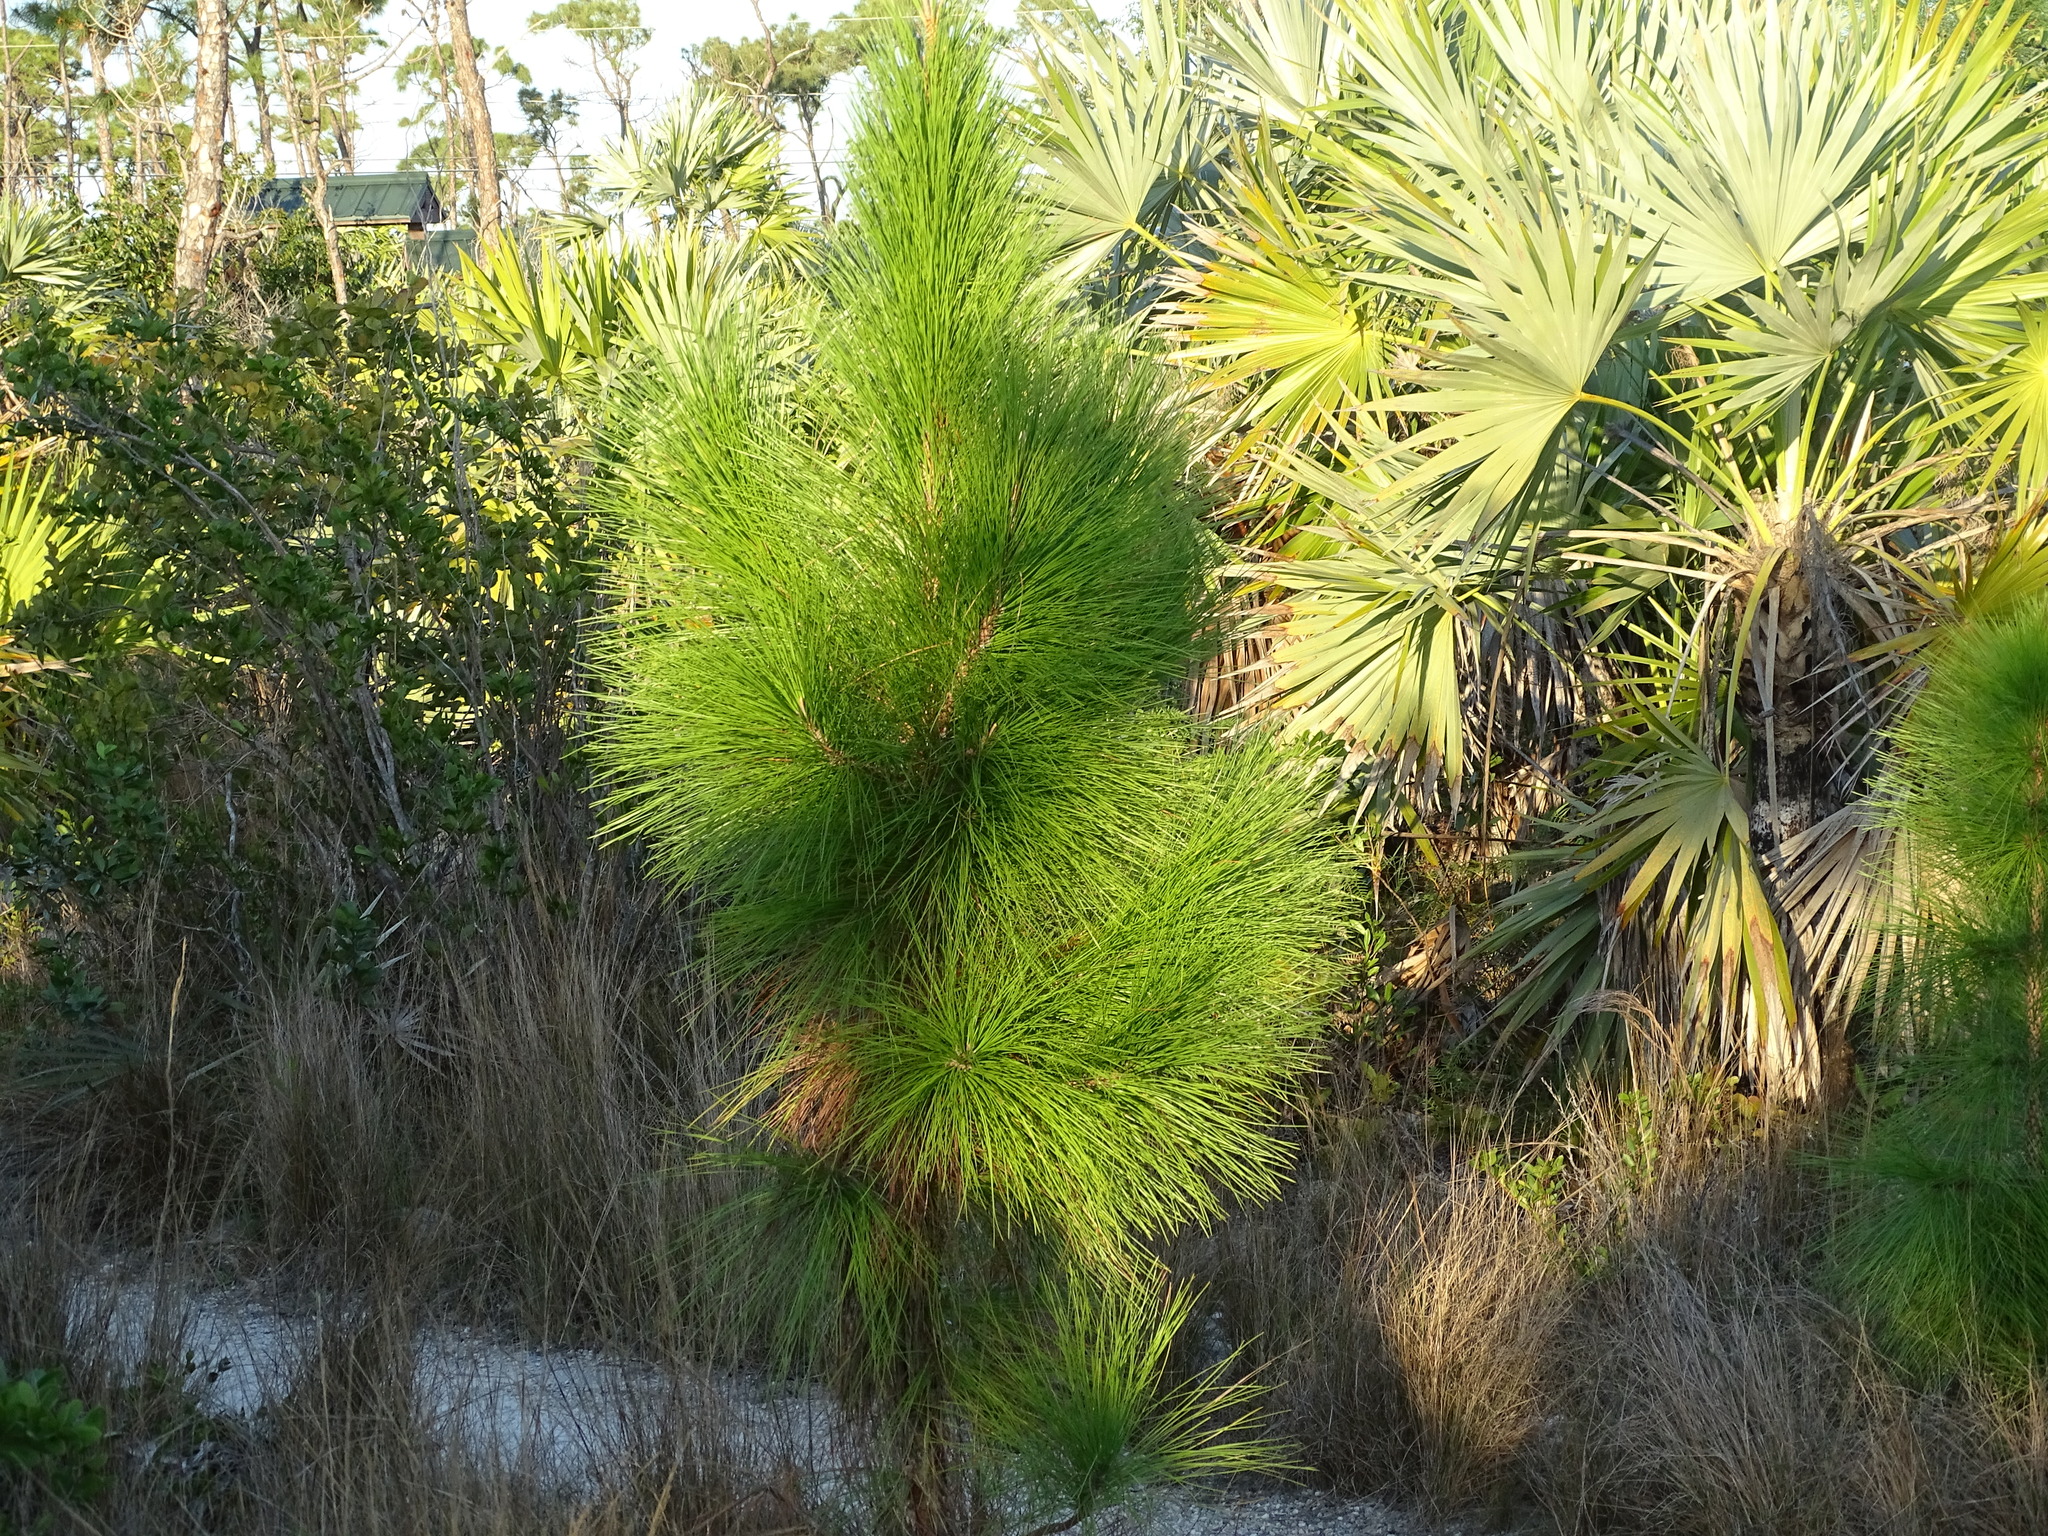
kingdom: Plantae
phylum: Tracheophyta
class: Pinopsida
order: Pinales
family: Pinaceae
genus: Pinus
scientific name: Pinus elliottii
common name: Slash pine
